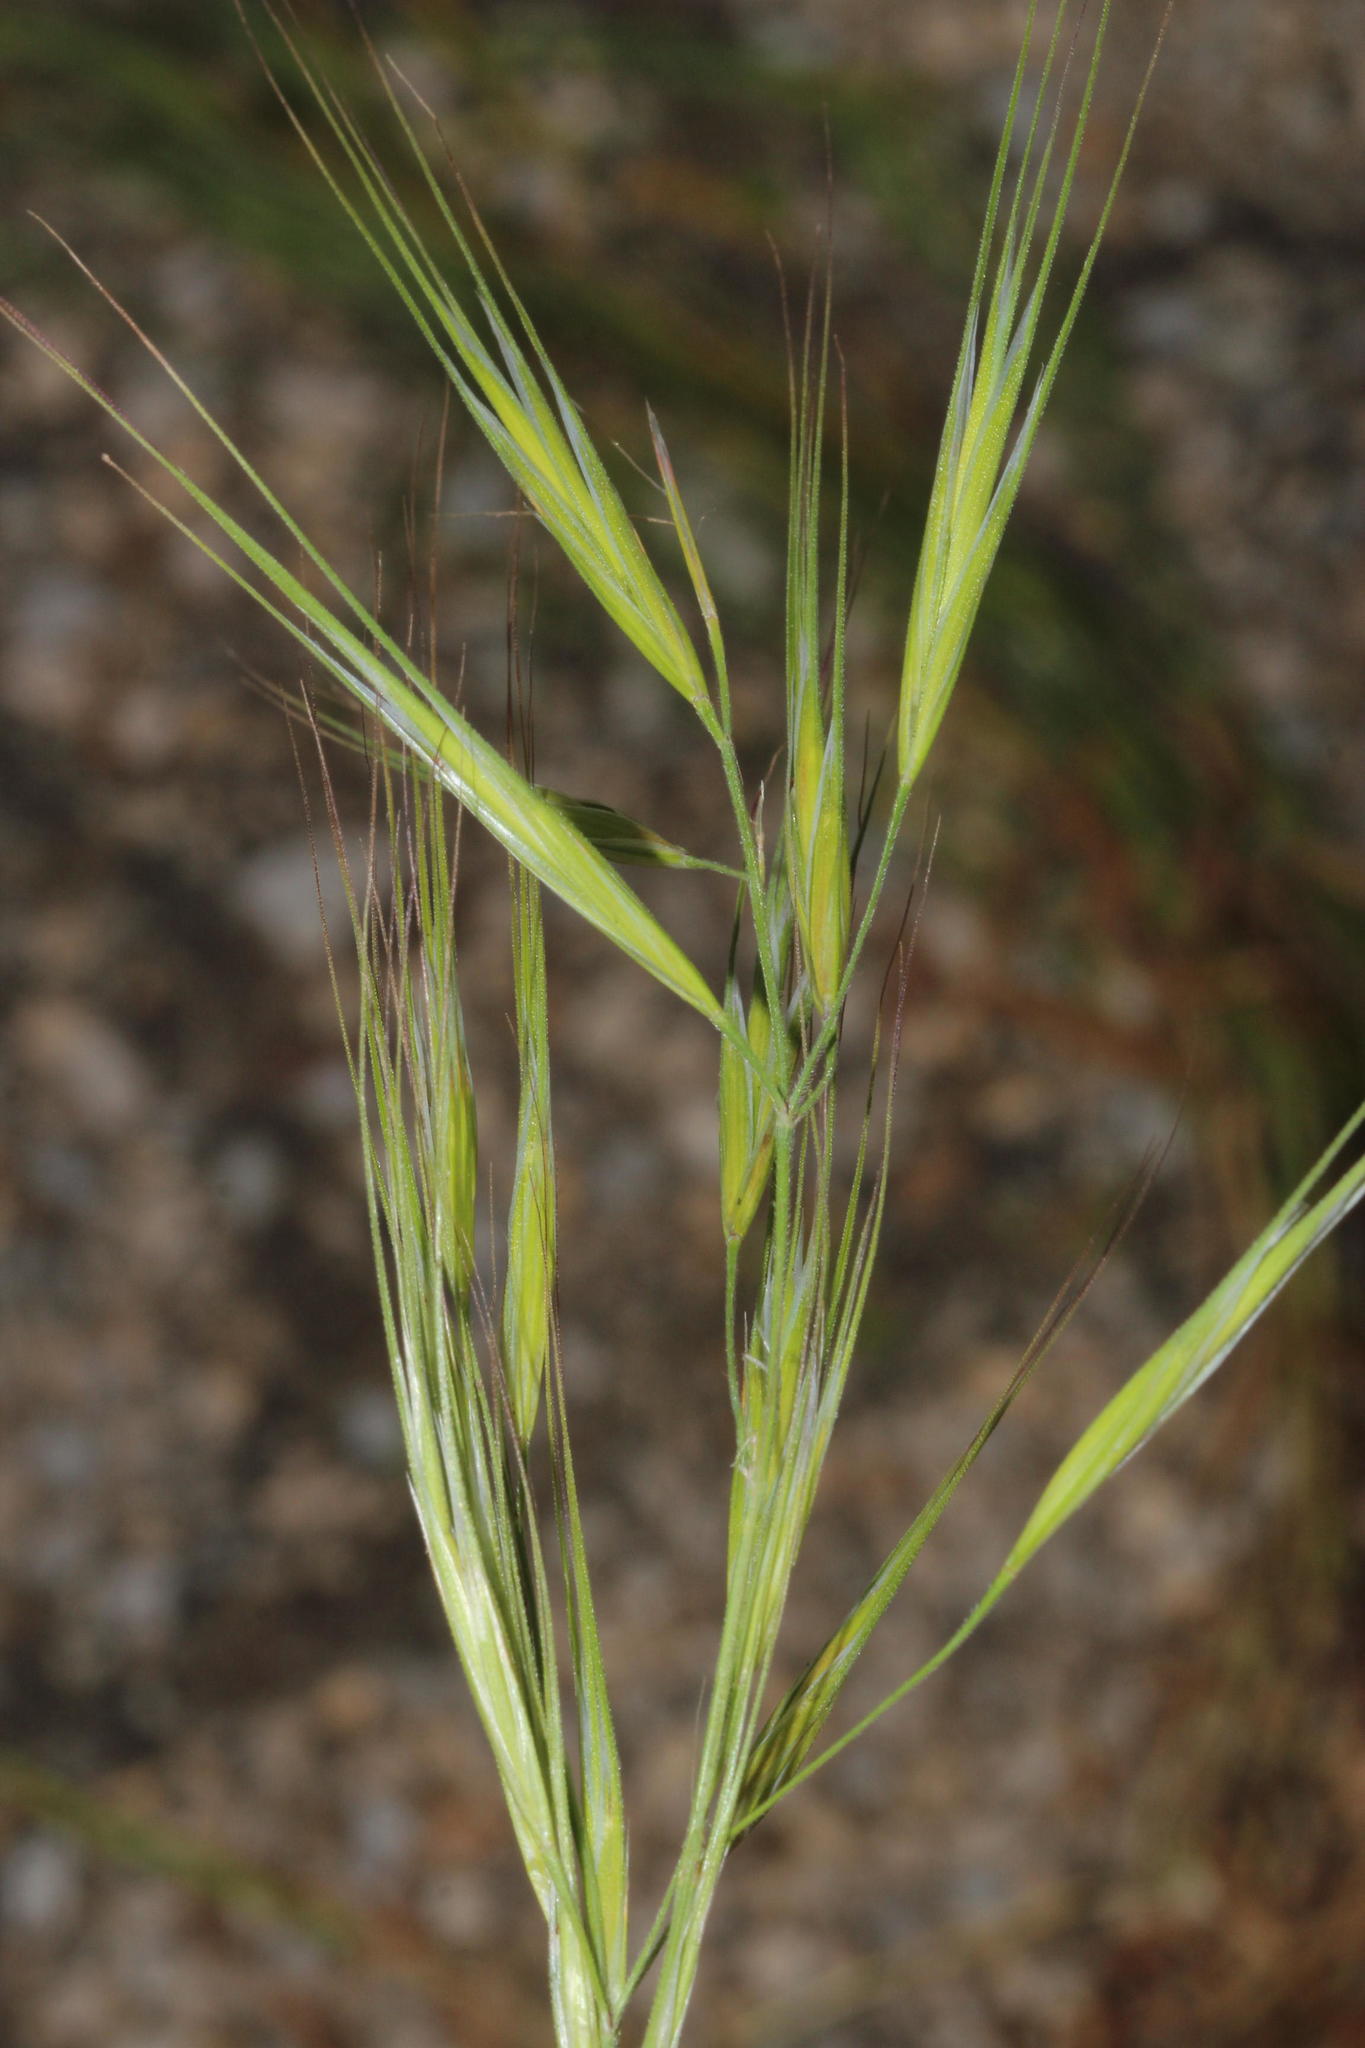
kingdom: Plantae
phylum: Tracheophyta
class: Liliopsida
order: Poales
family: Poaceae
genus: Bromus
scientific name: Bromus diandrus
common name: Ripgut brome
